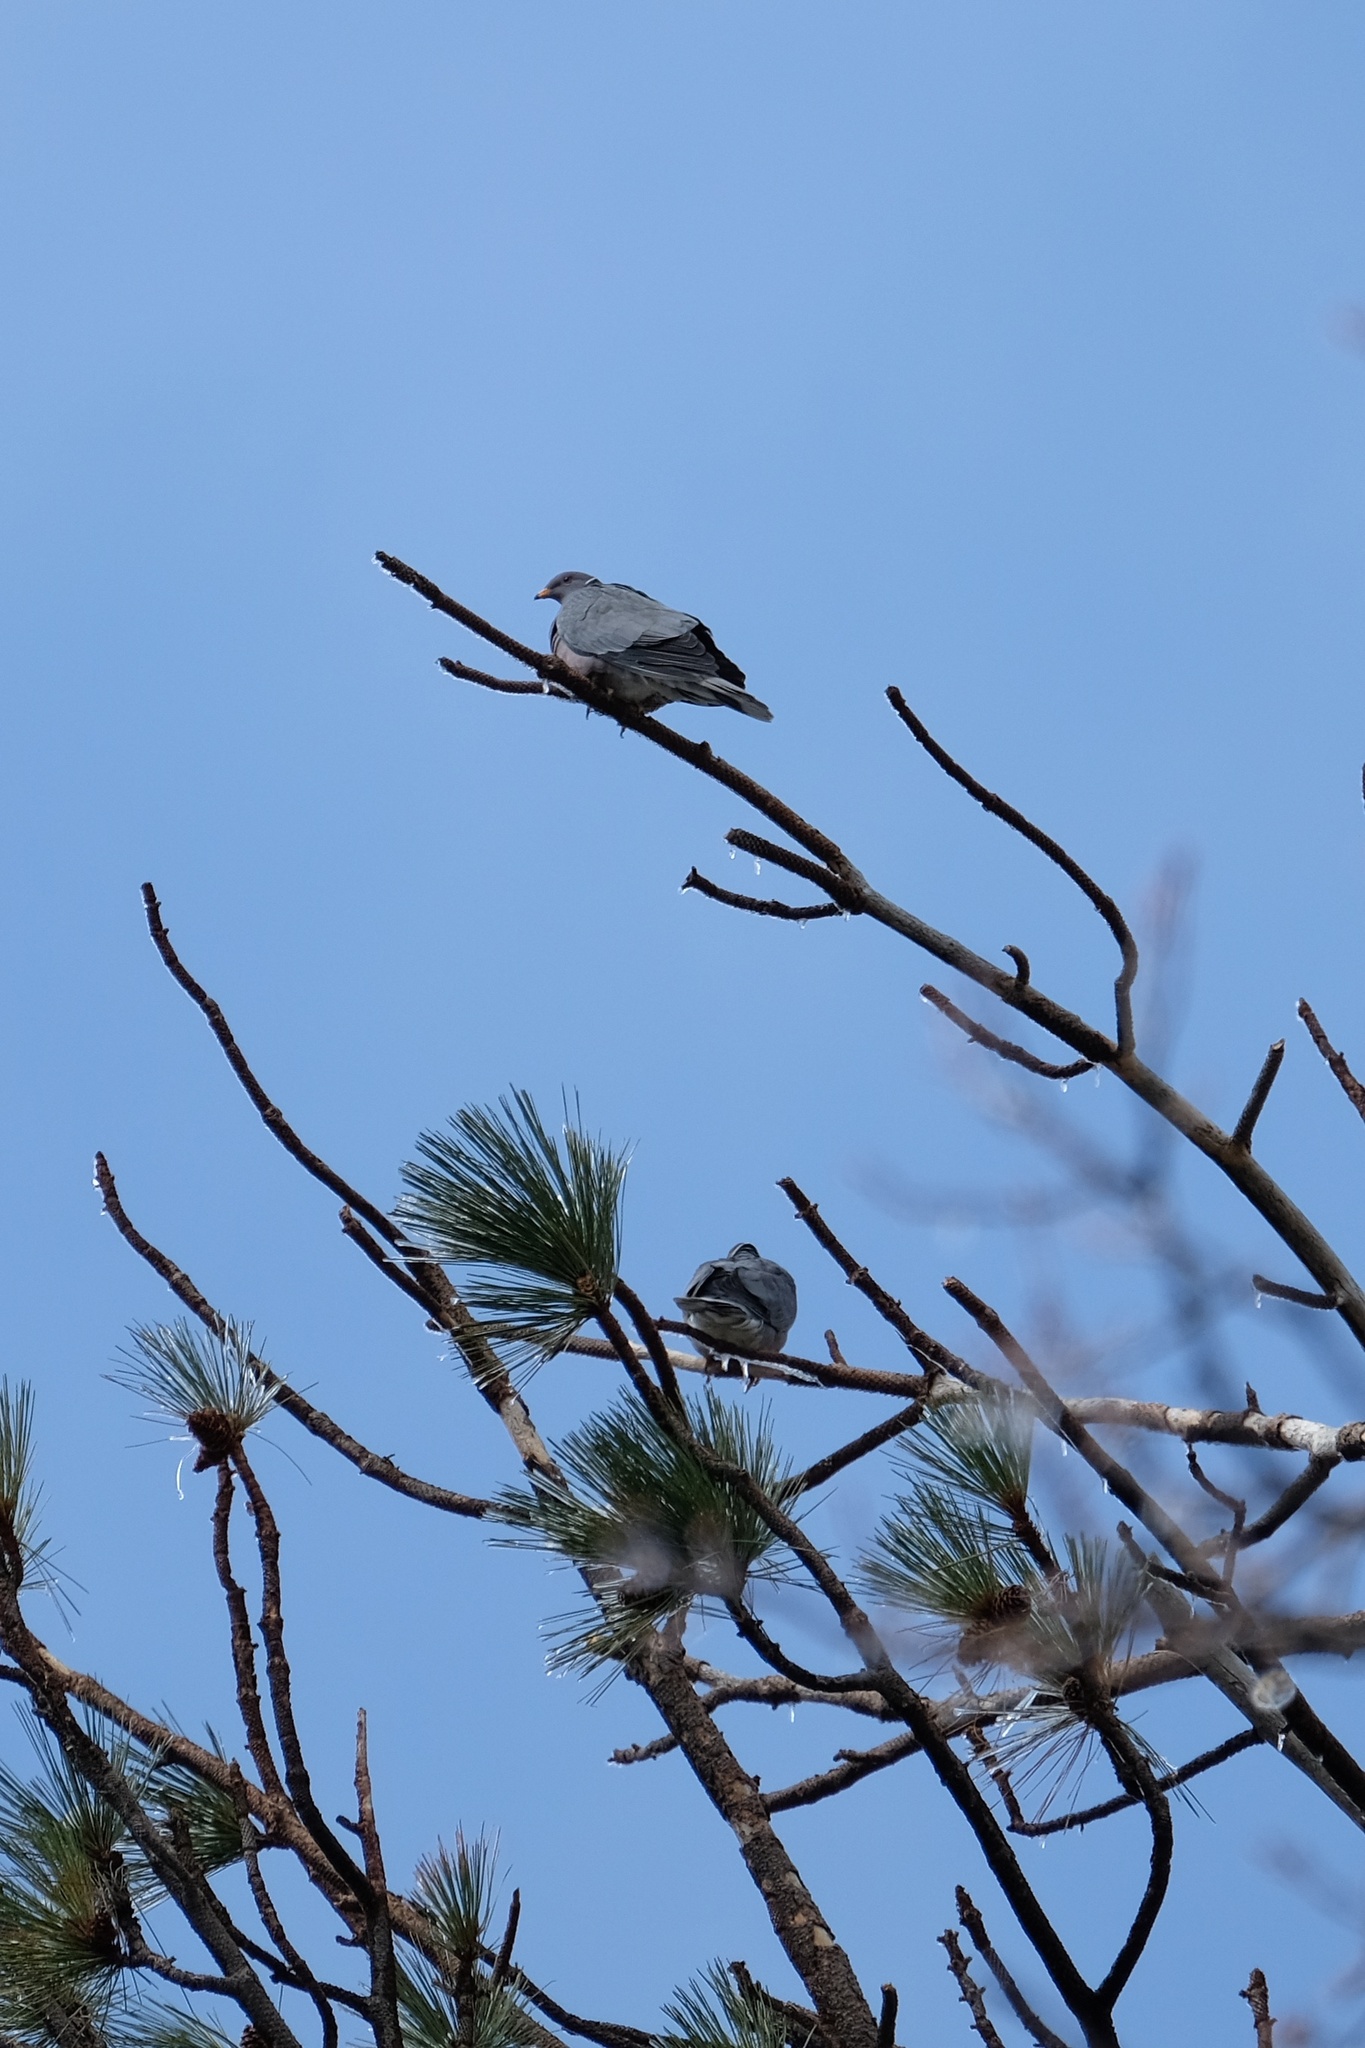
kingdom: Animalia
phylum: Chordata
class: Aves
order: Columbiformes
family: Columbidae
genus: Patagioenas
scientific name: Patagioenas fasciata
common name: Band-tailed pigeon
